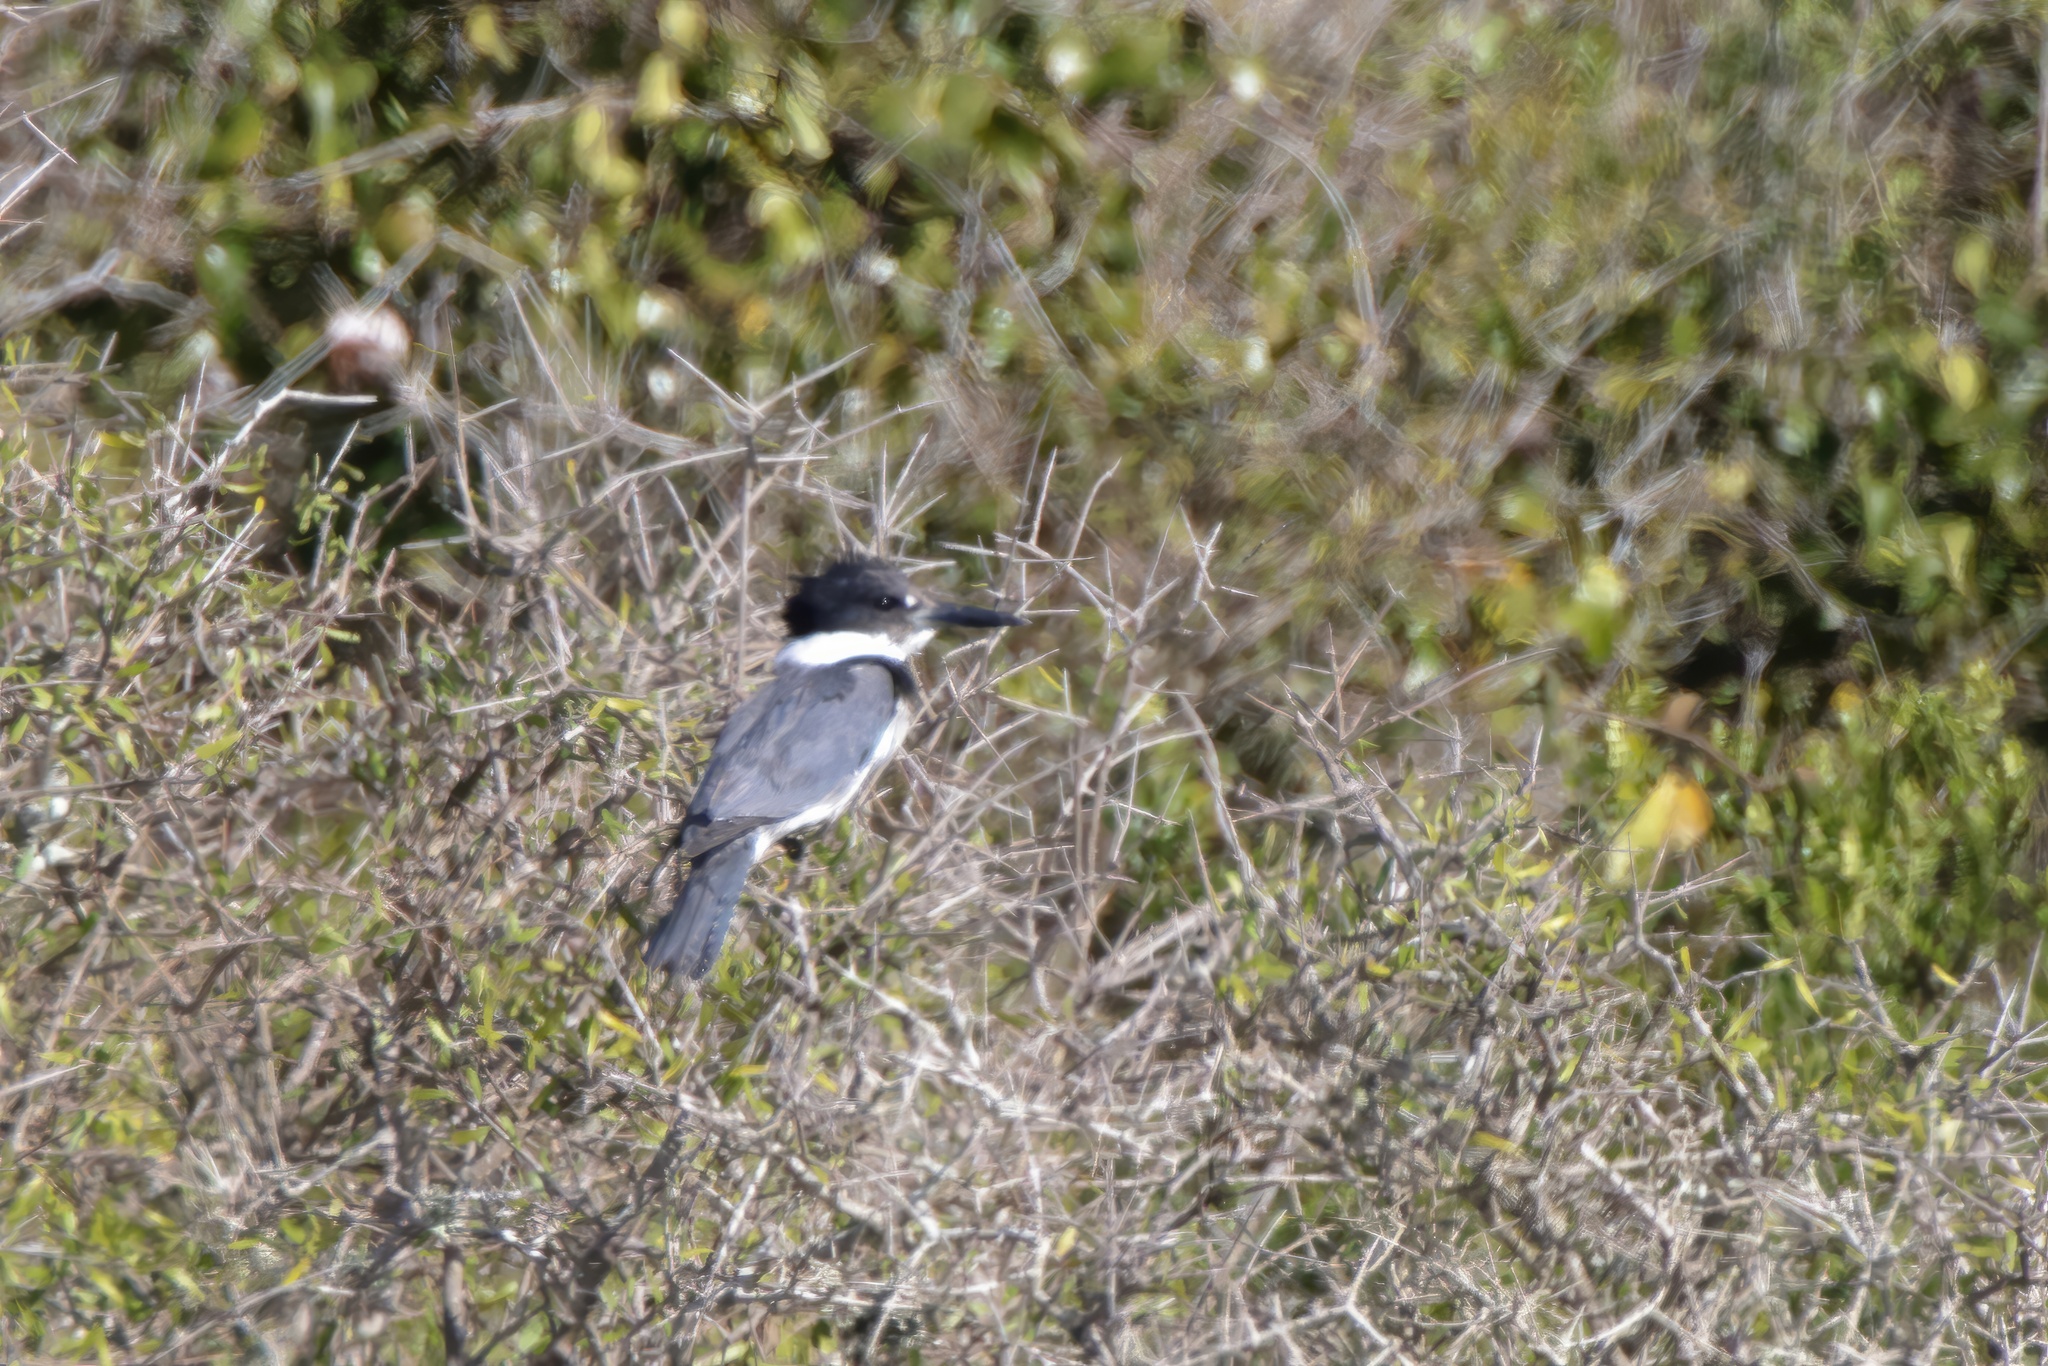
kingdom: Animalia
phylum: Chordata
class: Aves
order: Coraciiformes
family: Alcedinidae
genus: Megaceryle
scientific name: Megaceryle alcyon
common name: Belted kingfisher
